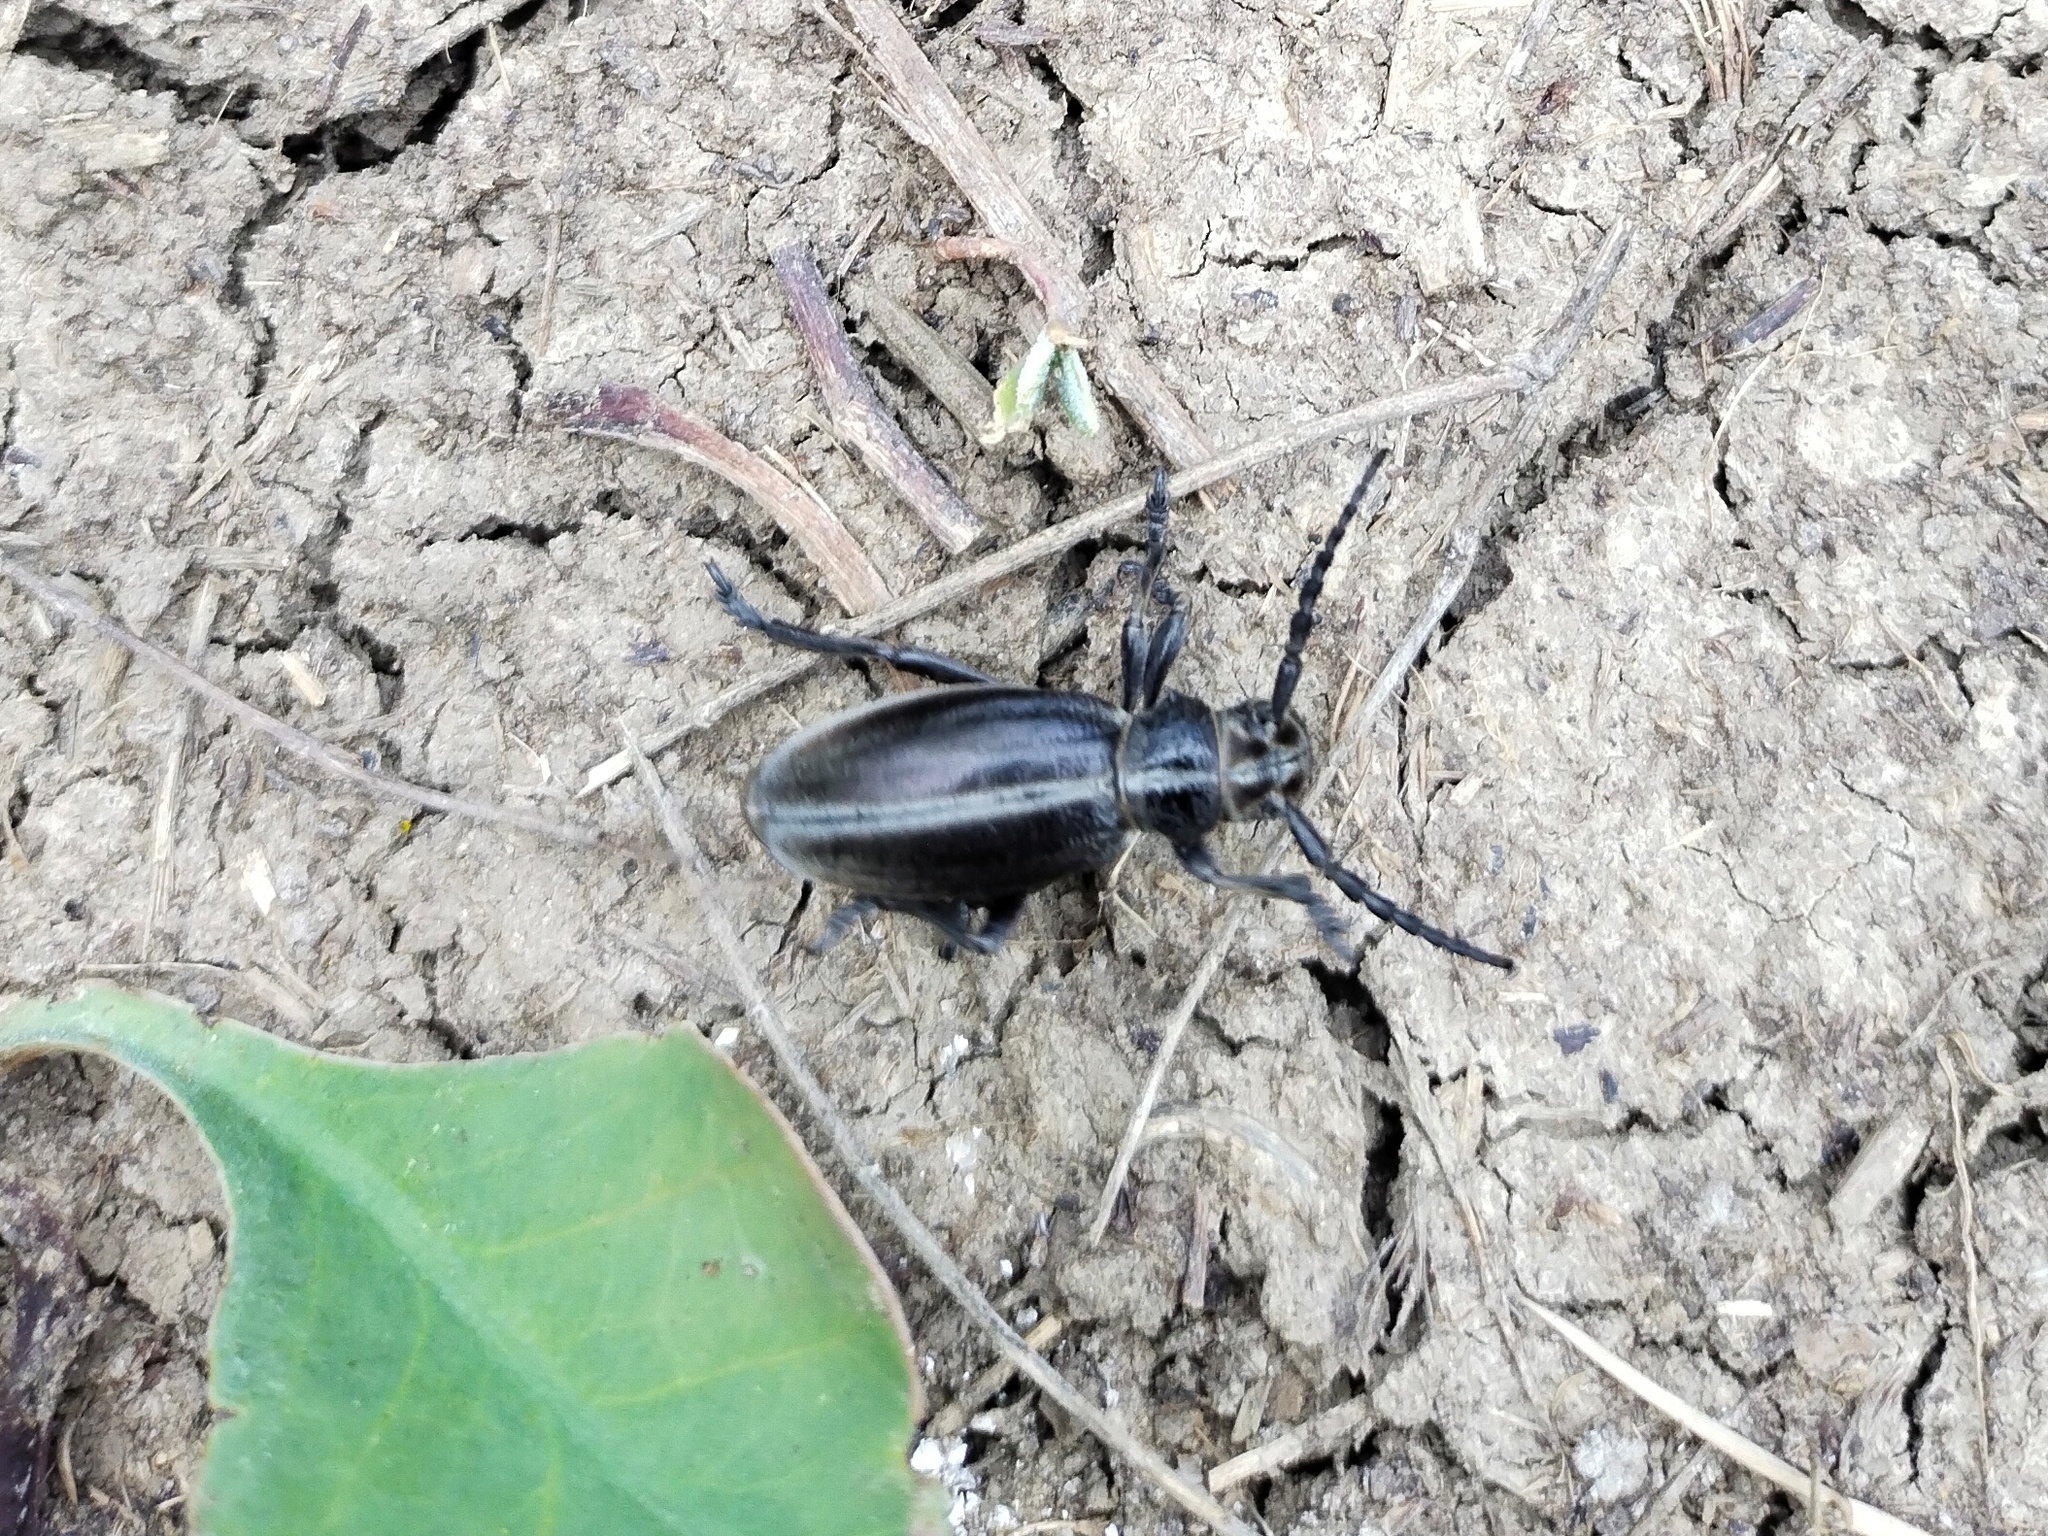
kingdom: Animalia
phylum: Arthropoda
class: Insecta
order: Coleoptera
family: Cerambycidae
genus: Dorcadion
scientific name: Dorcadion carinatum
